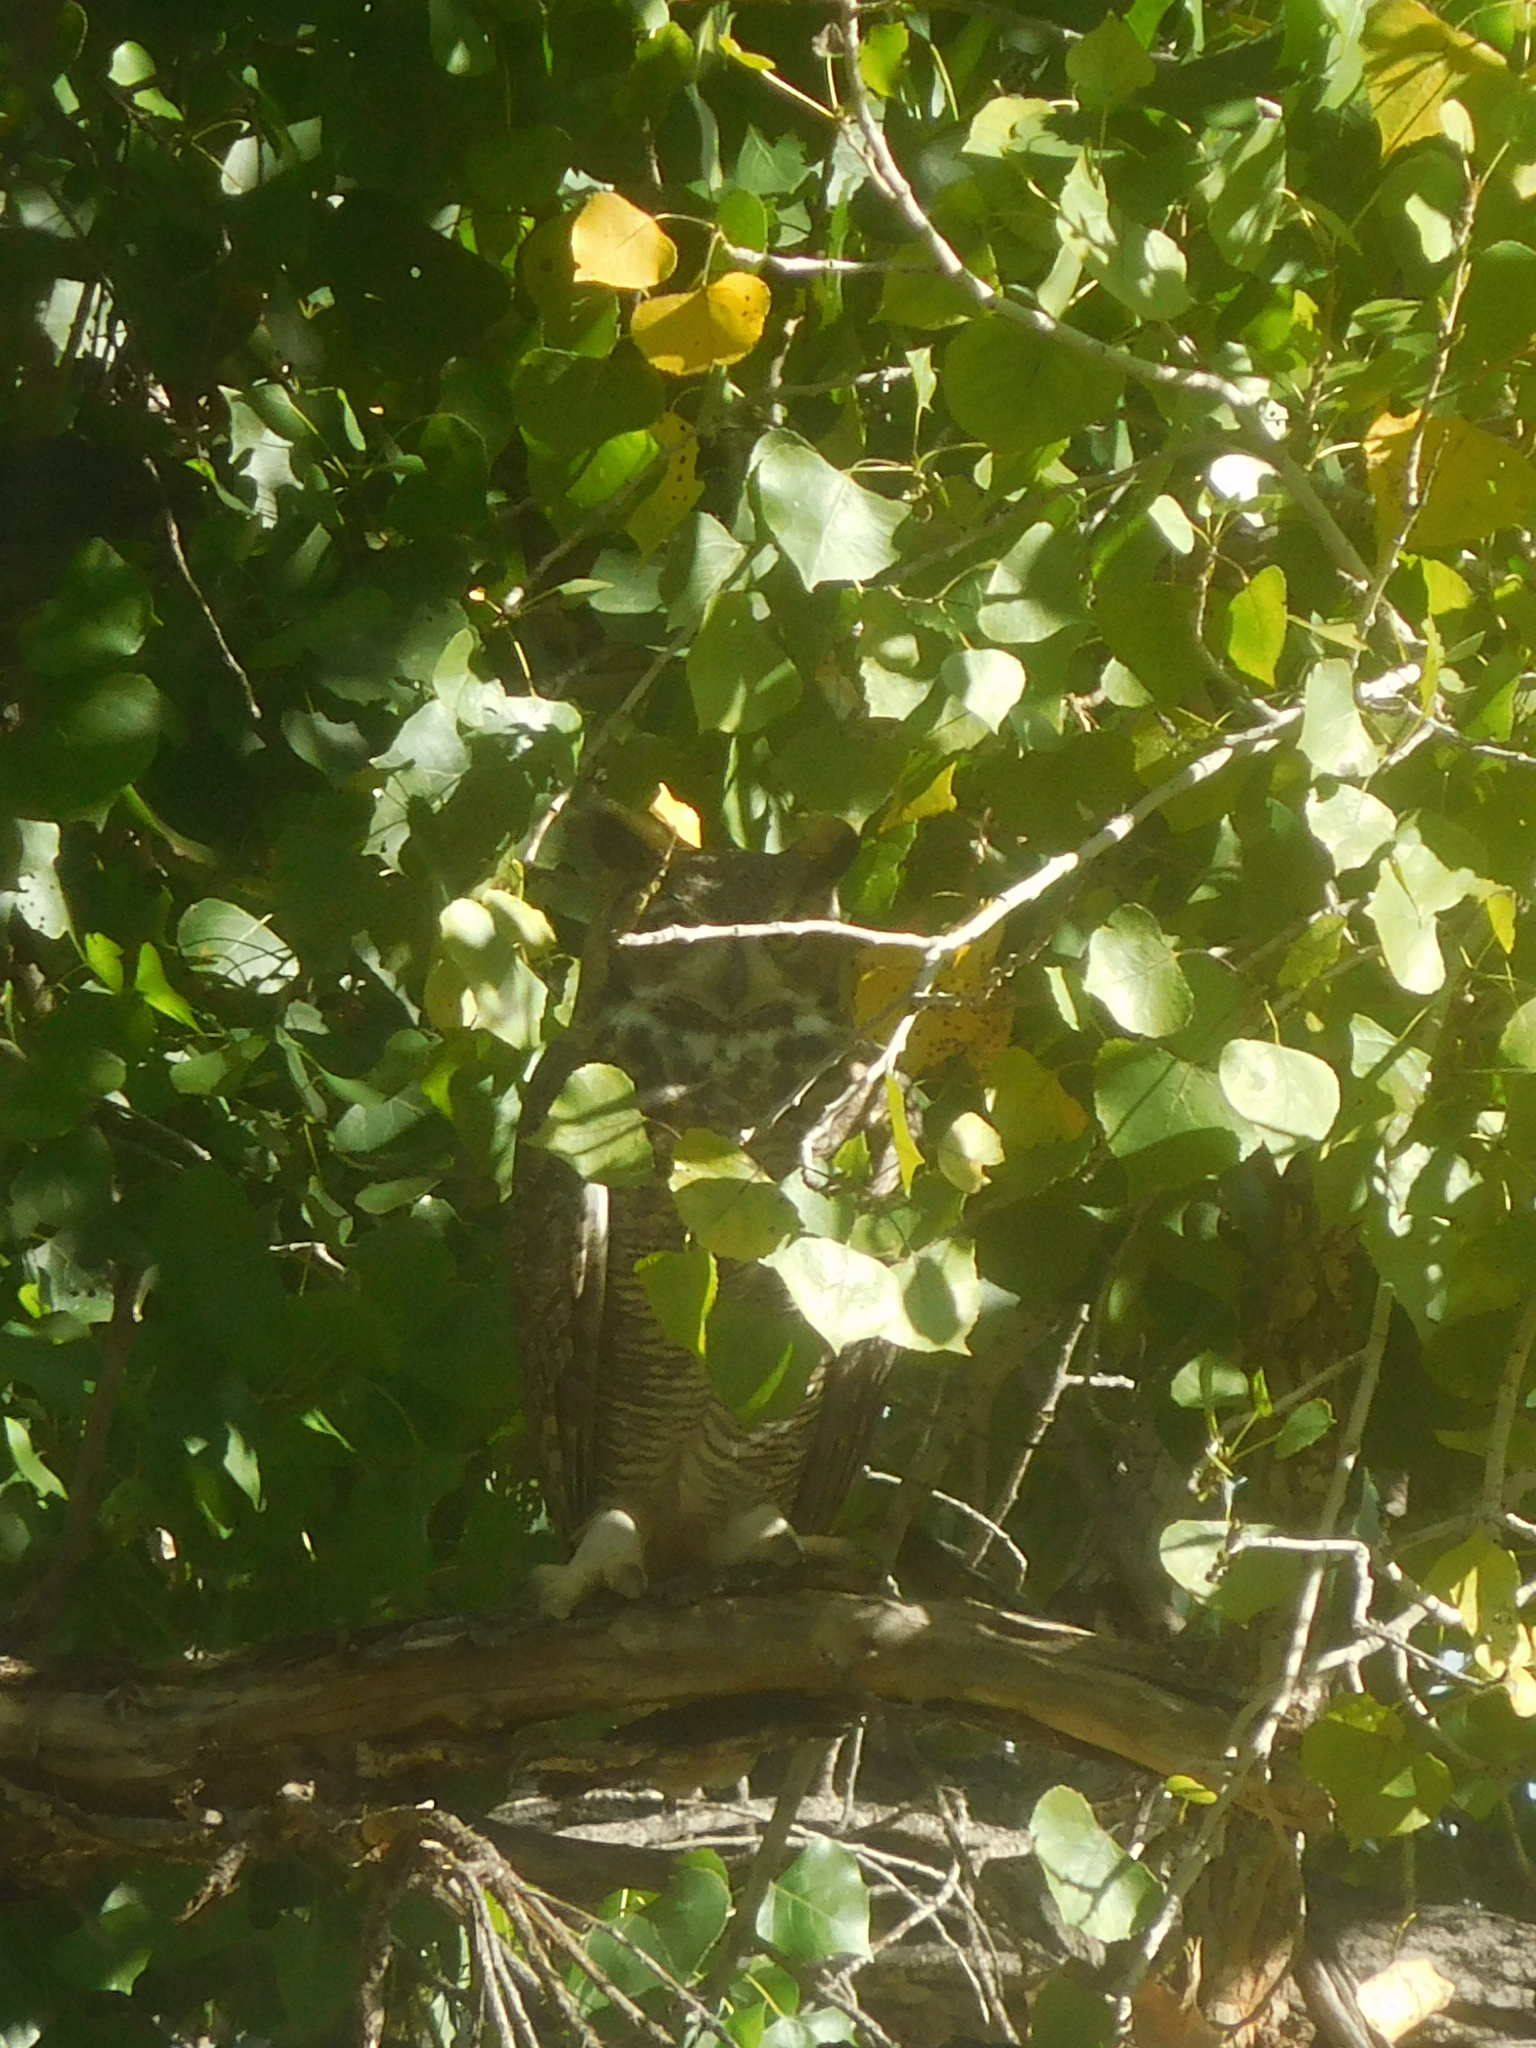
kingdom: Animalia
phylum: Chordata
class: Aves
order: Strigiformes
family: Strigidae
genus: Bubo
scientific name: Bubo virginianus
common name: Great horned owl
